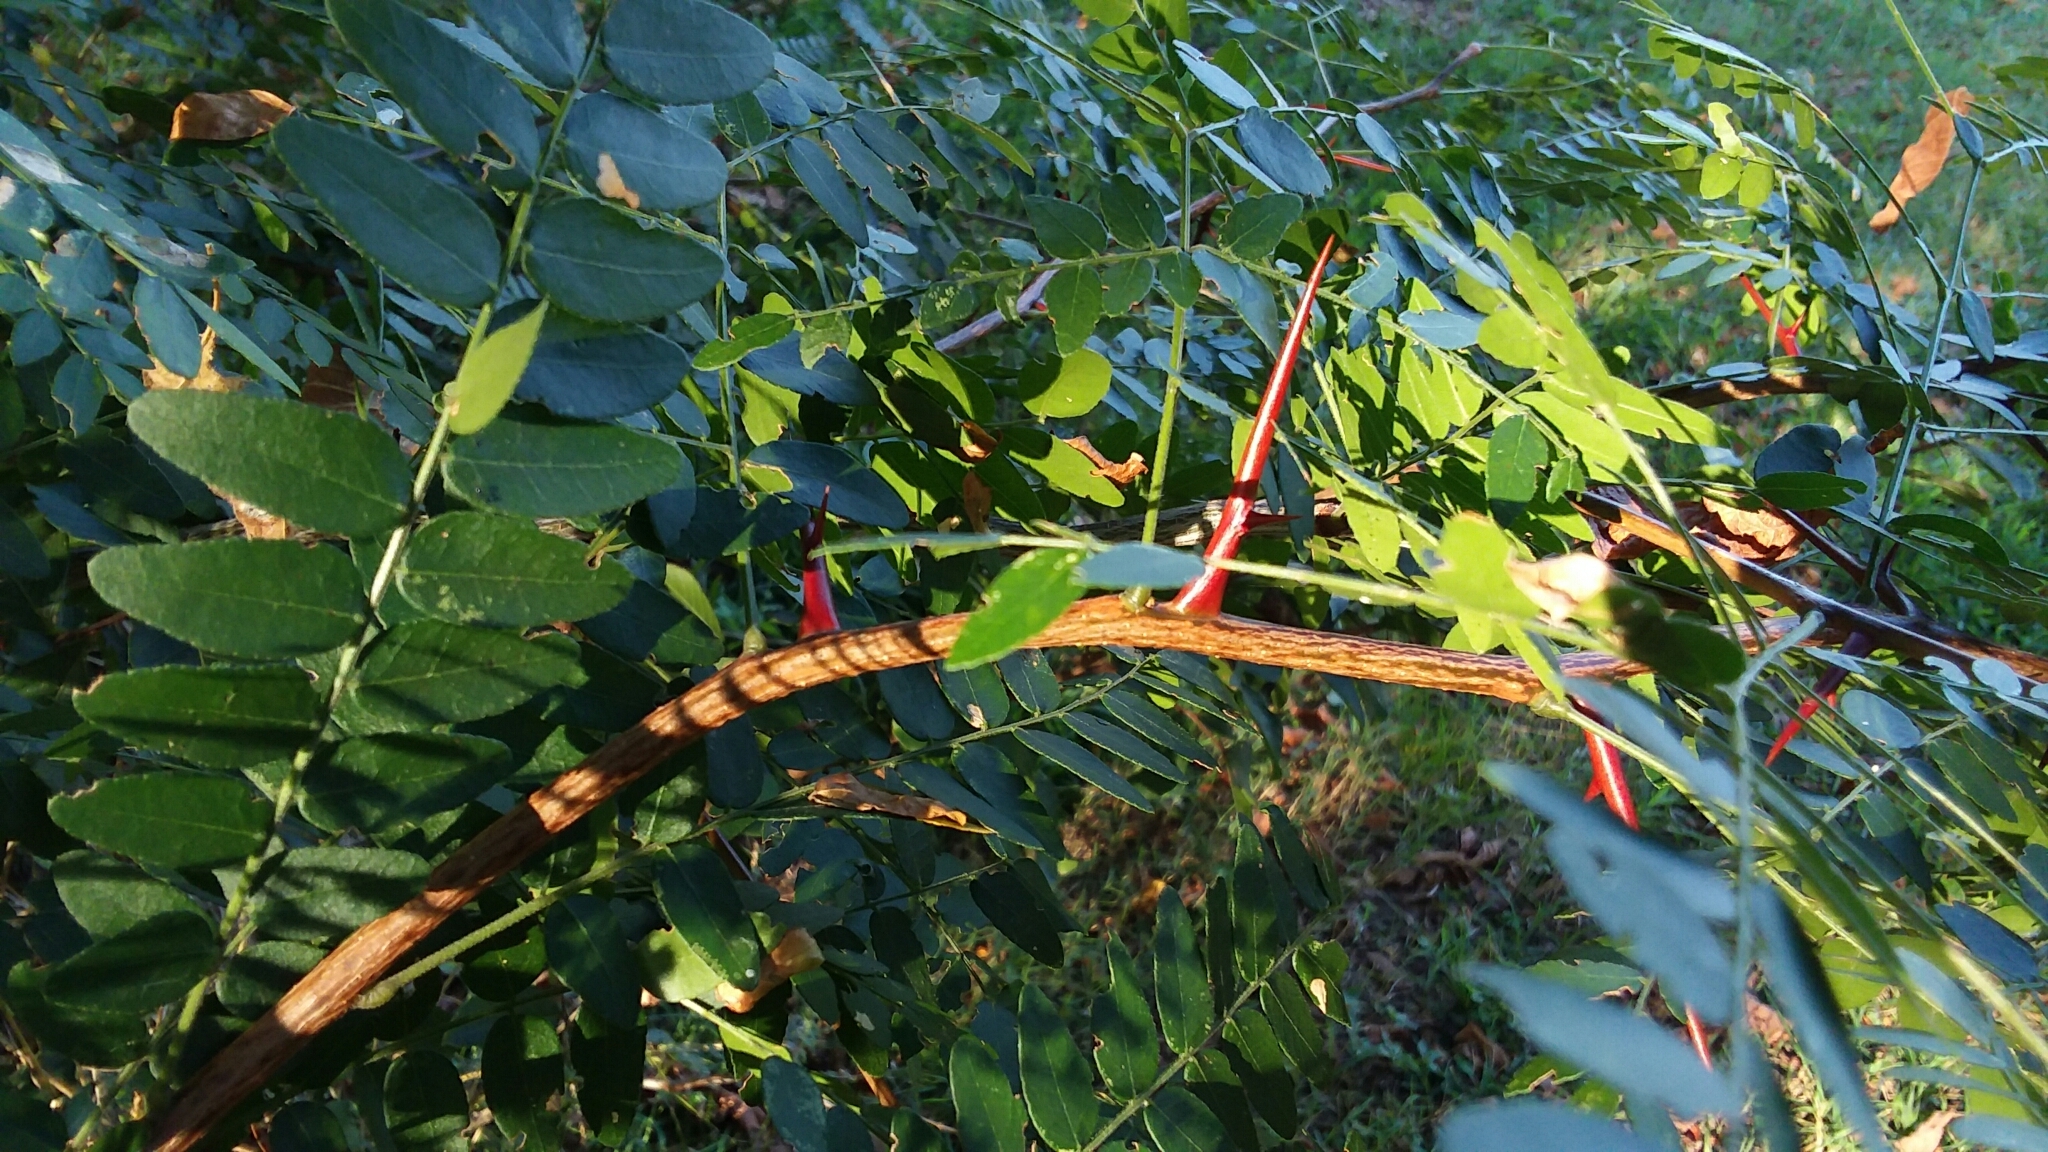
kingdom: Plantae
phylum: Tracheophyta
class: Magnoliopsida
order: Fabales
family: Fabaceae
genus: Gleditsia
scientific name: Gleditsia triacanthos
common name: Common honeylocust
